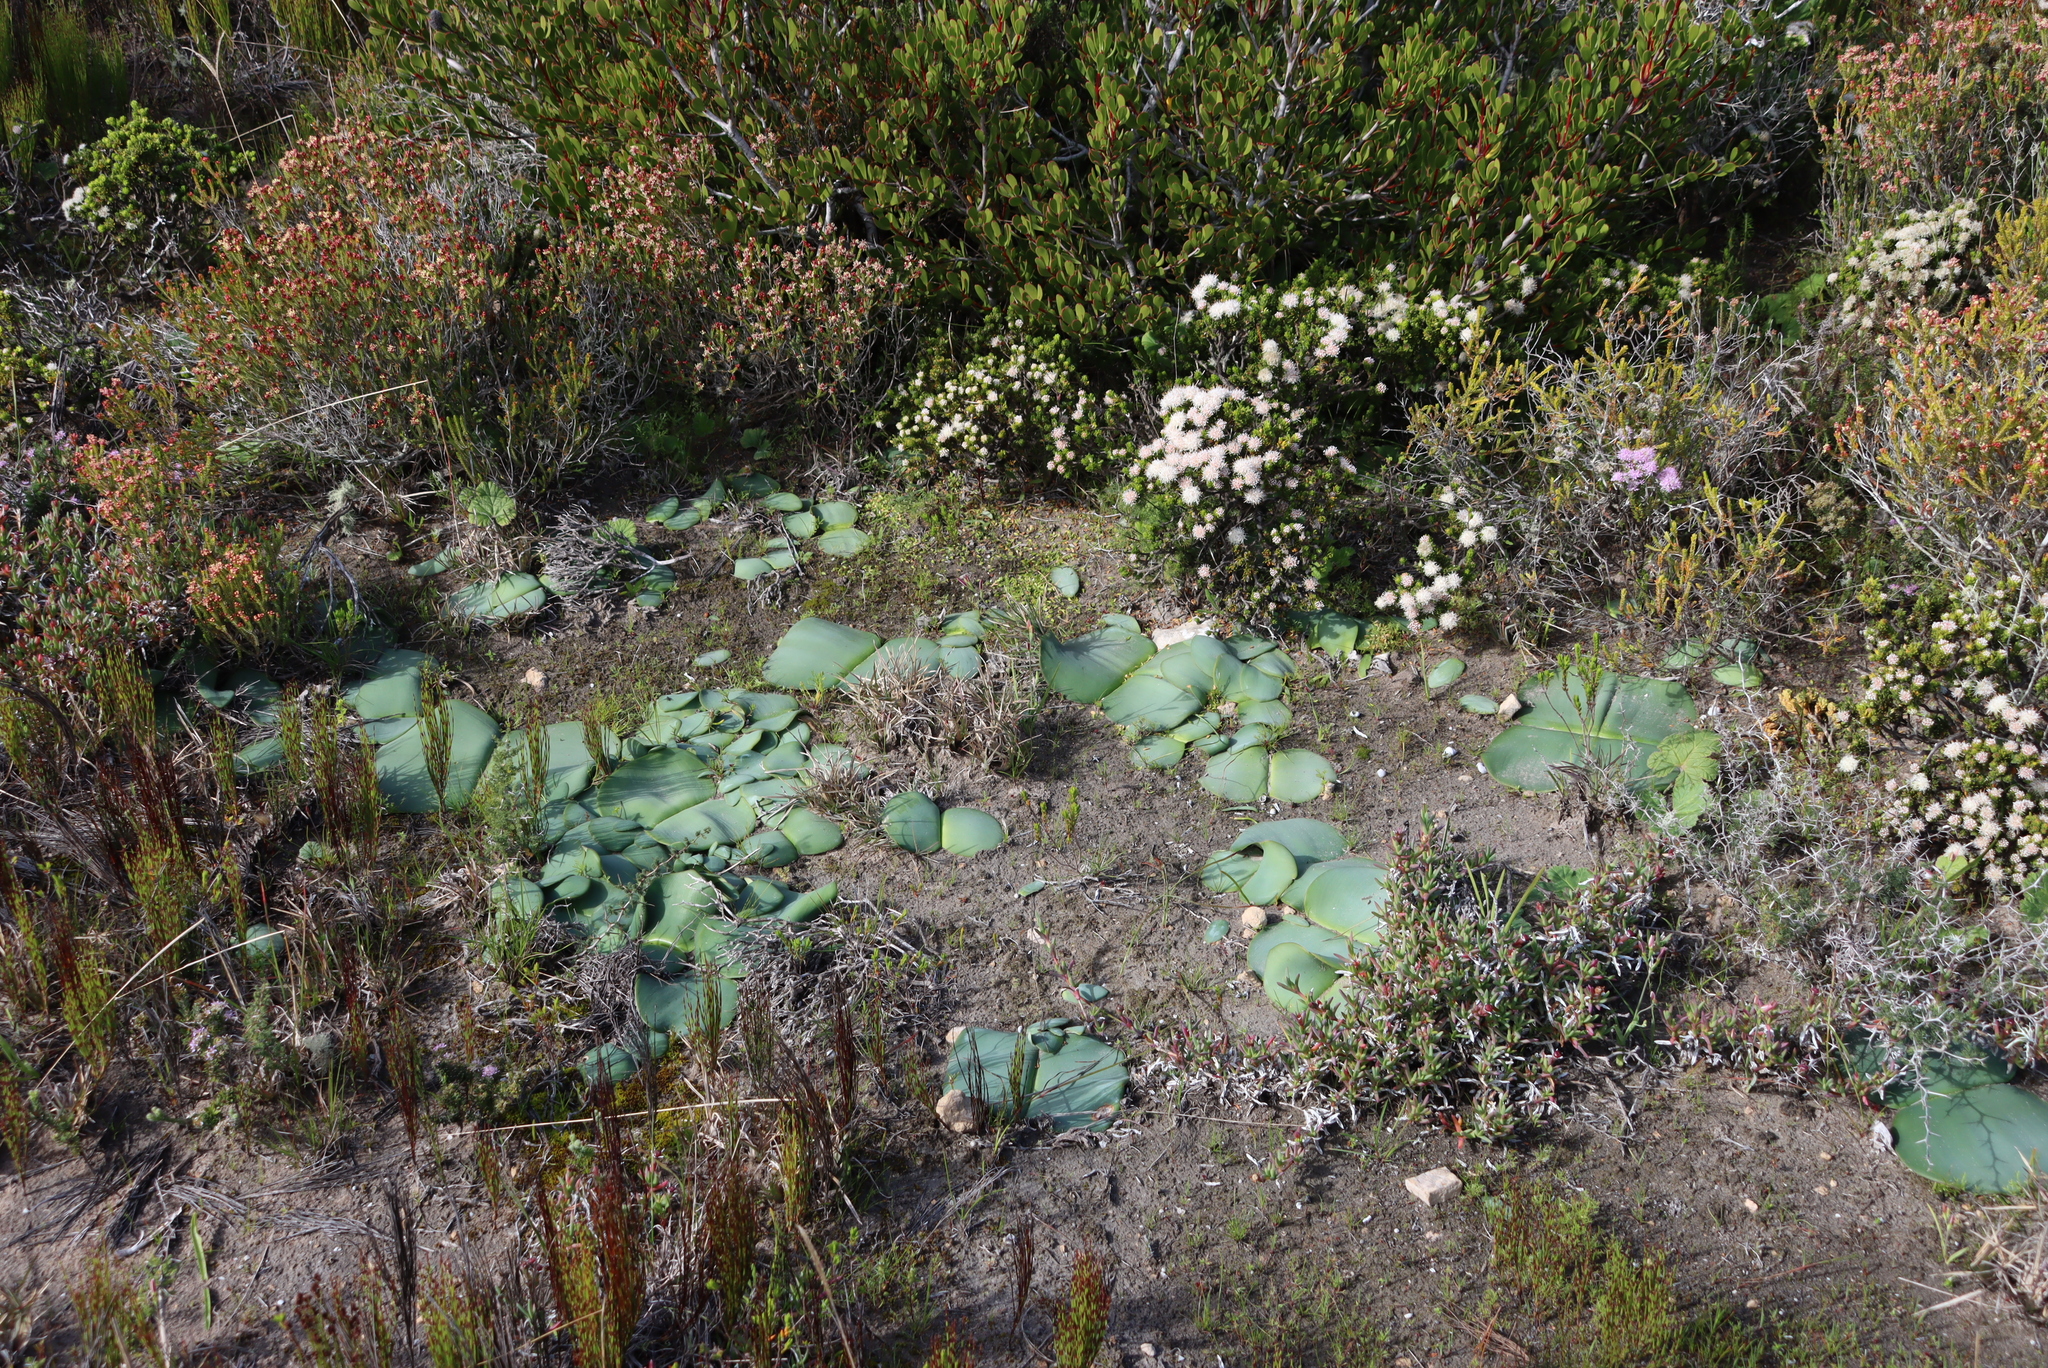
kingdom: Plantae
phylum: Tracheophyta
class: Liliopsida
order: Asparagales
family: Amaryllidaceae
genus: Haemanthus
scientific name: Haemanthus sanguineus
